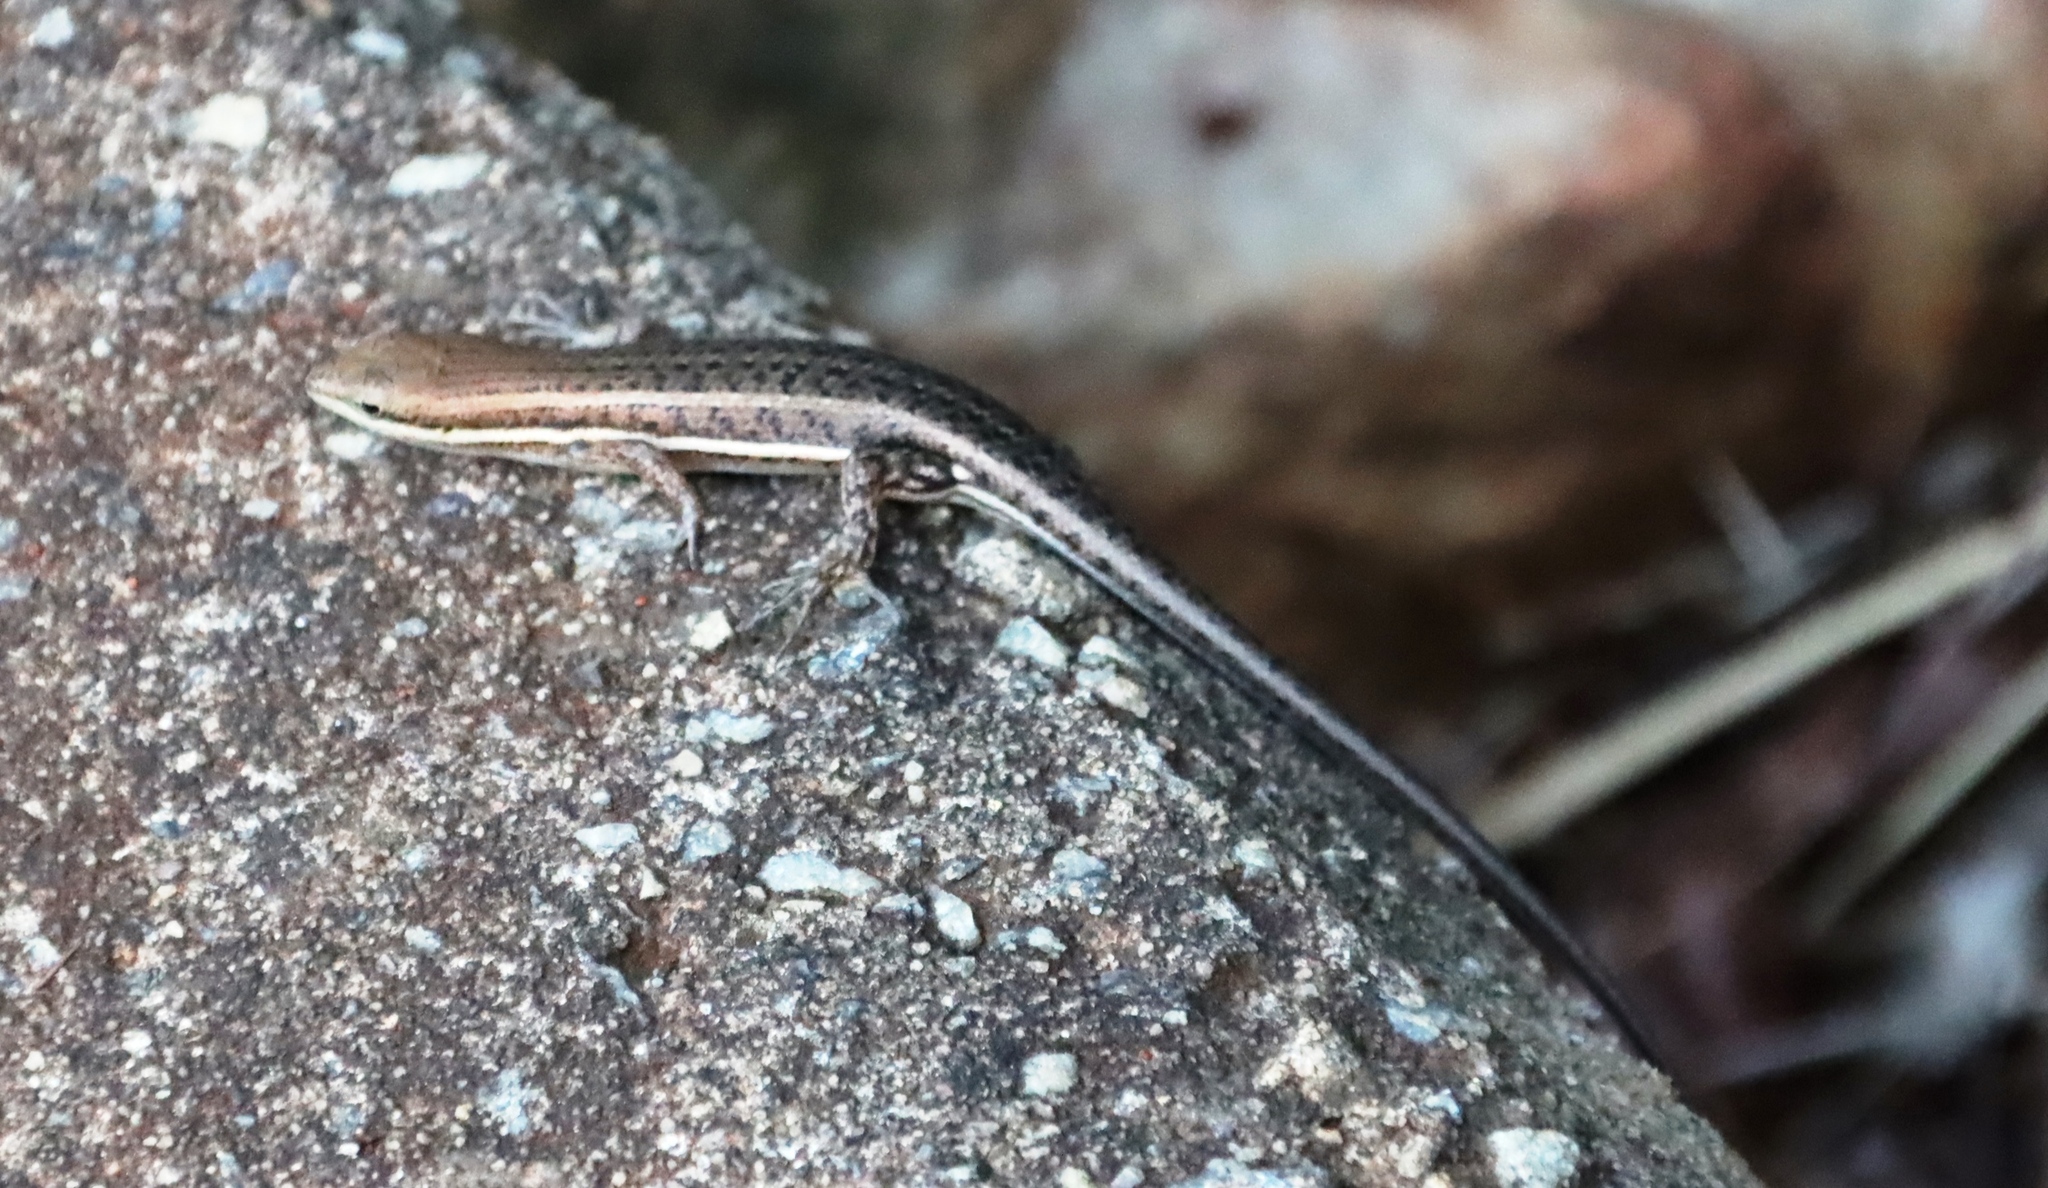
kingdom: Animalia
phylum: Chordata
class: Squamata
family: Scincidae
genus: Trachylepis
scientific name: Trachylepis varia
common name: Eastern variable skink
